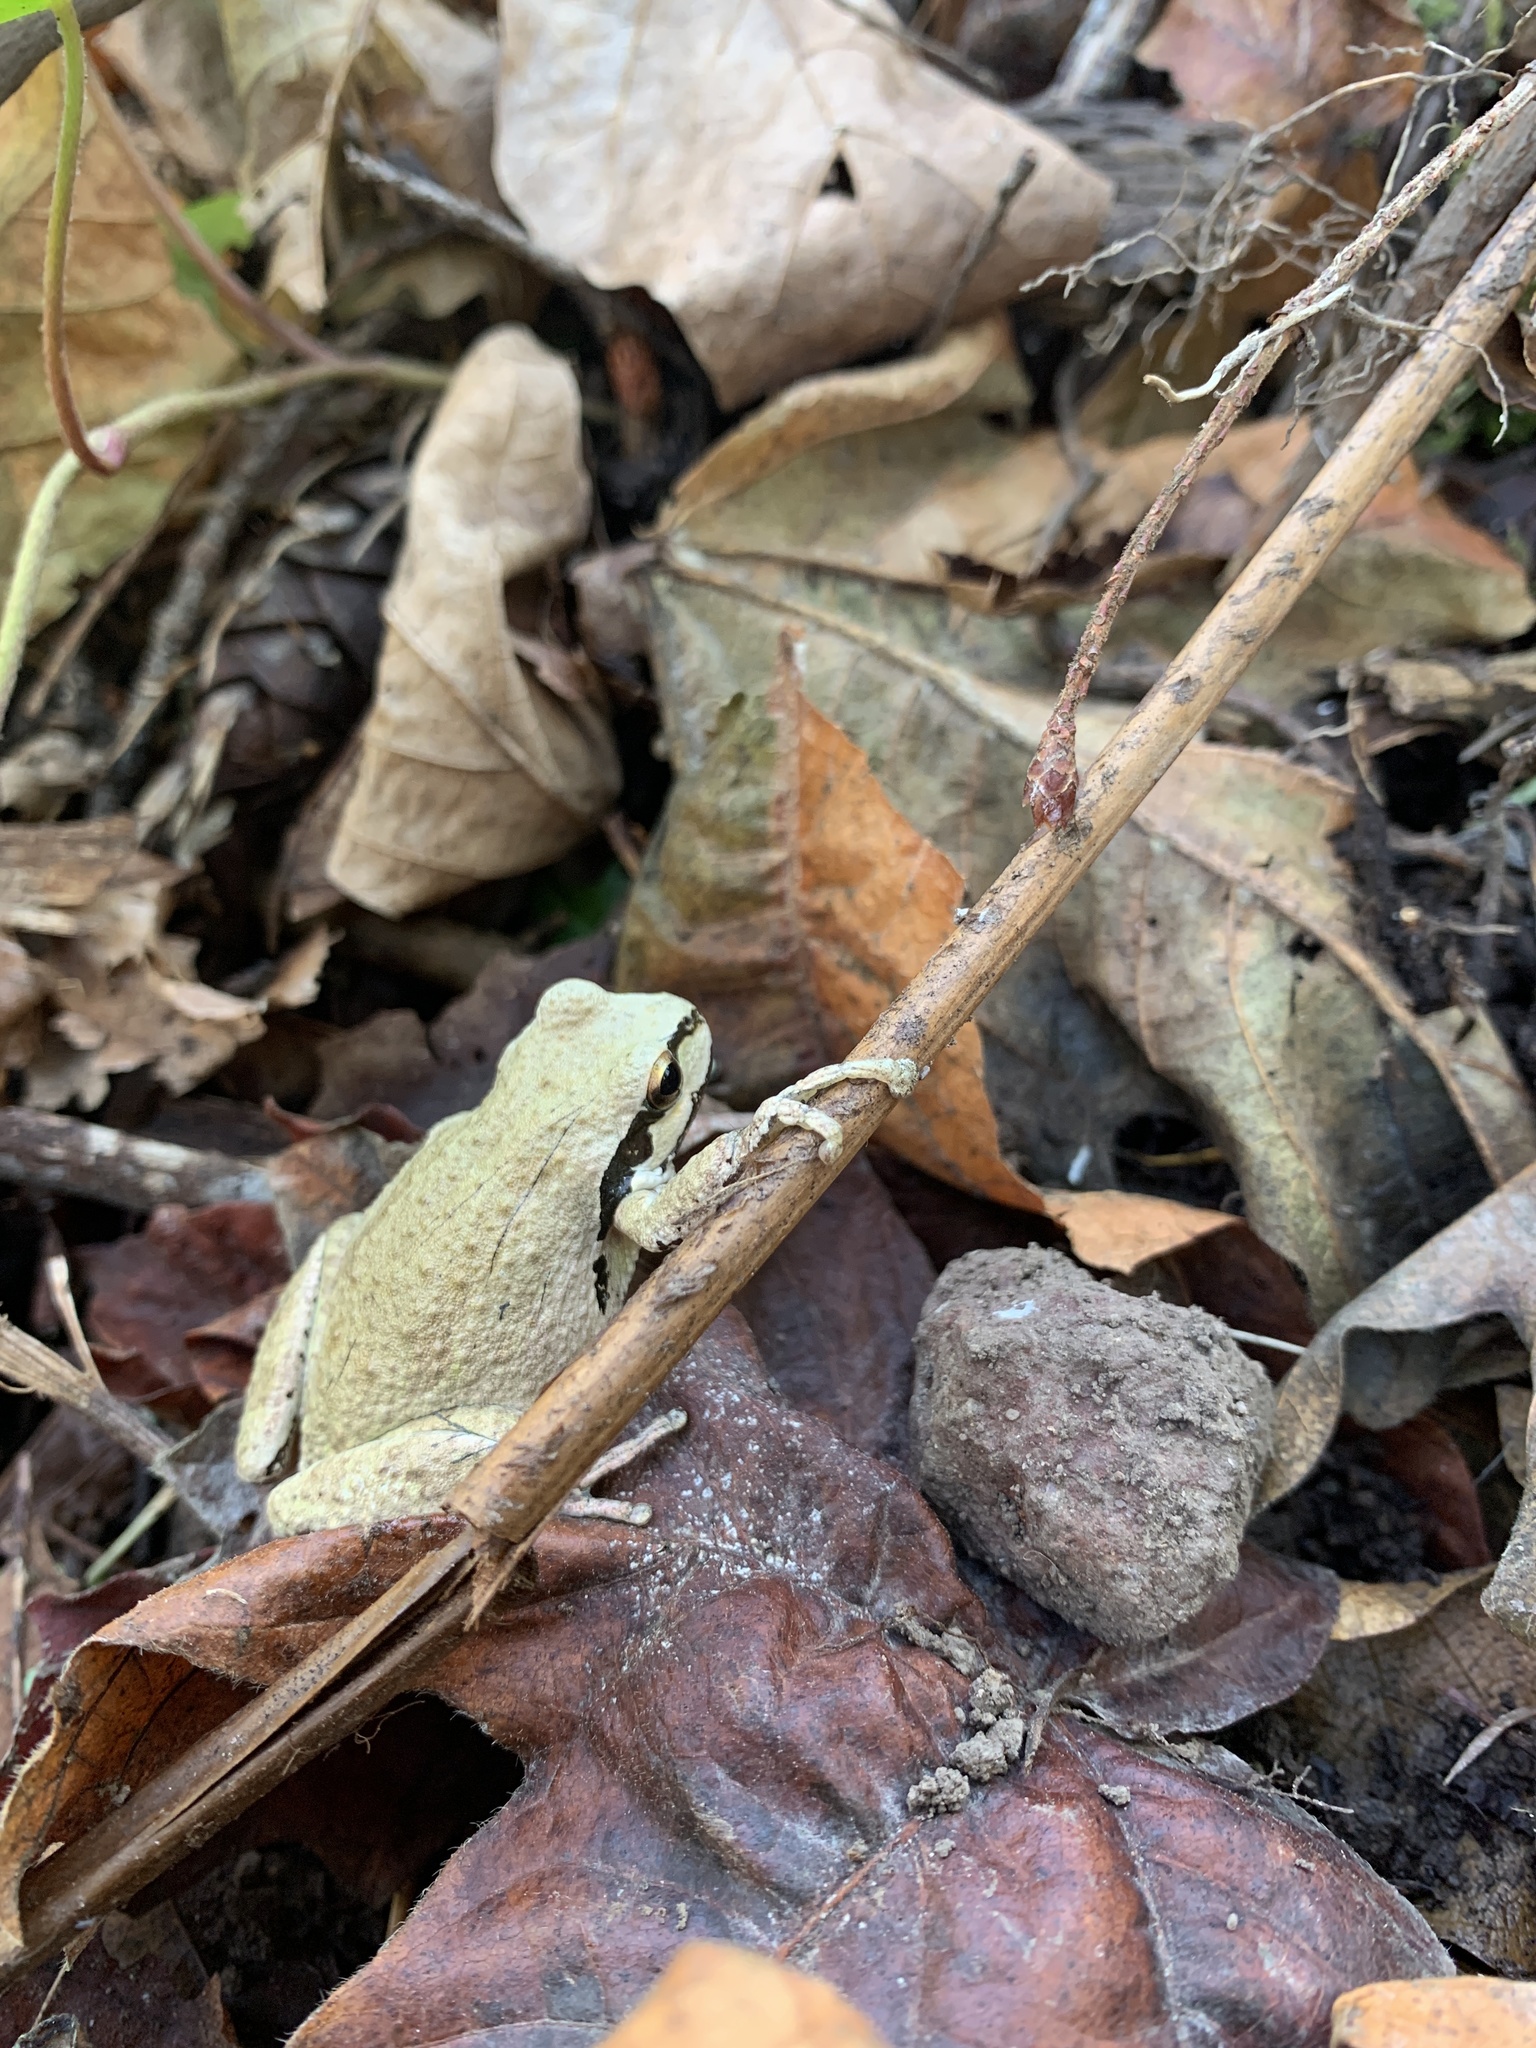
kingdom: Animalia
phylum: Chordata
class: Amphibia
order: Anura
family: Hylidae
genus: Pseudacris
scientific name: Pseudacris regilla
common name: Pacific chorus frog
